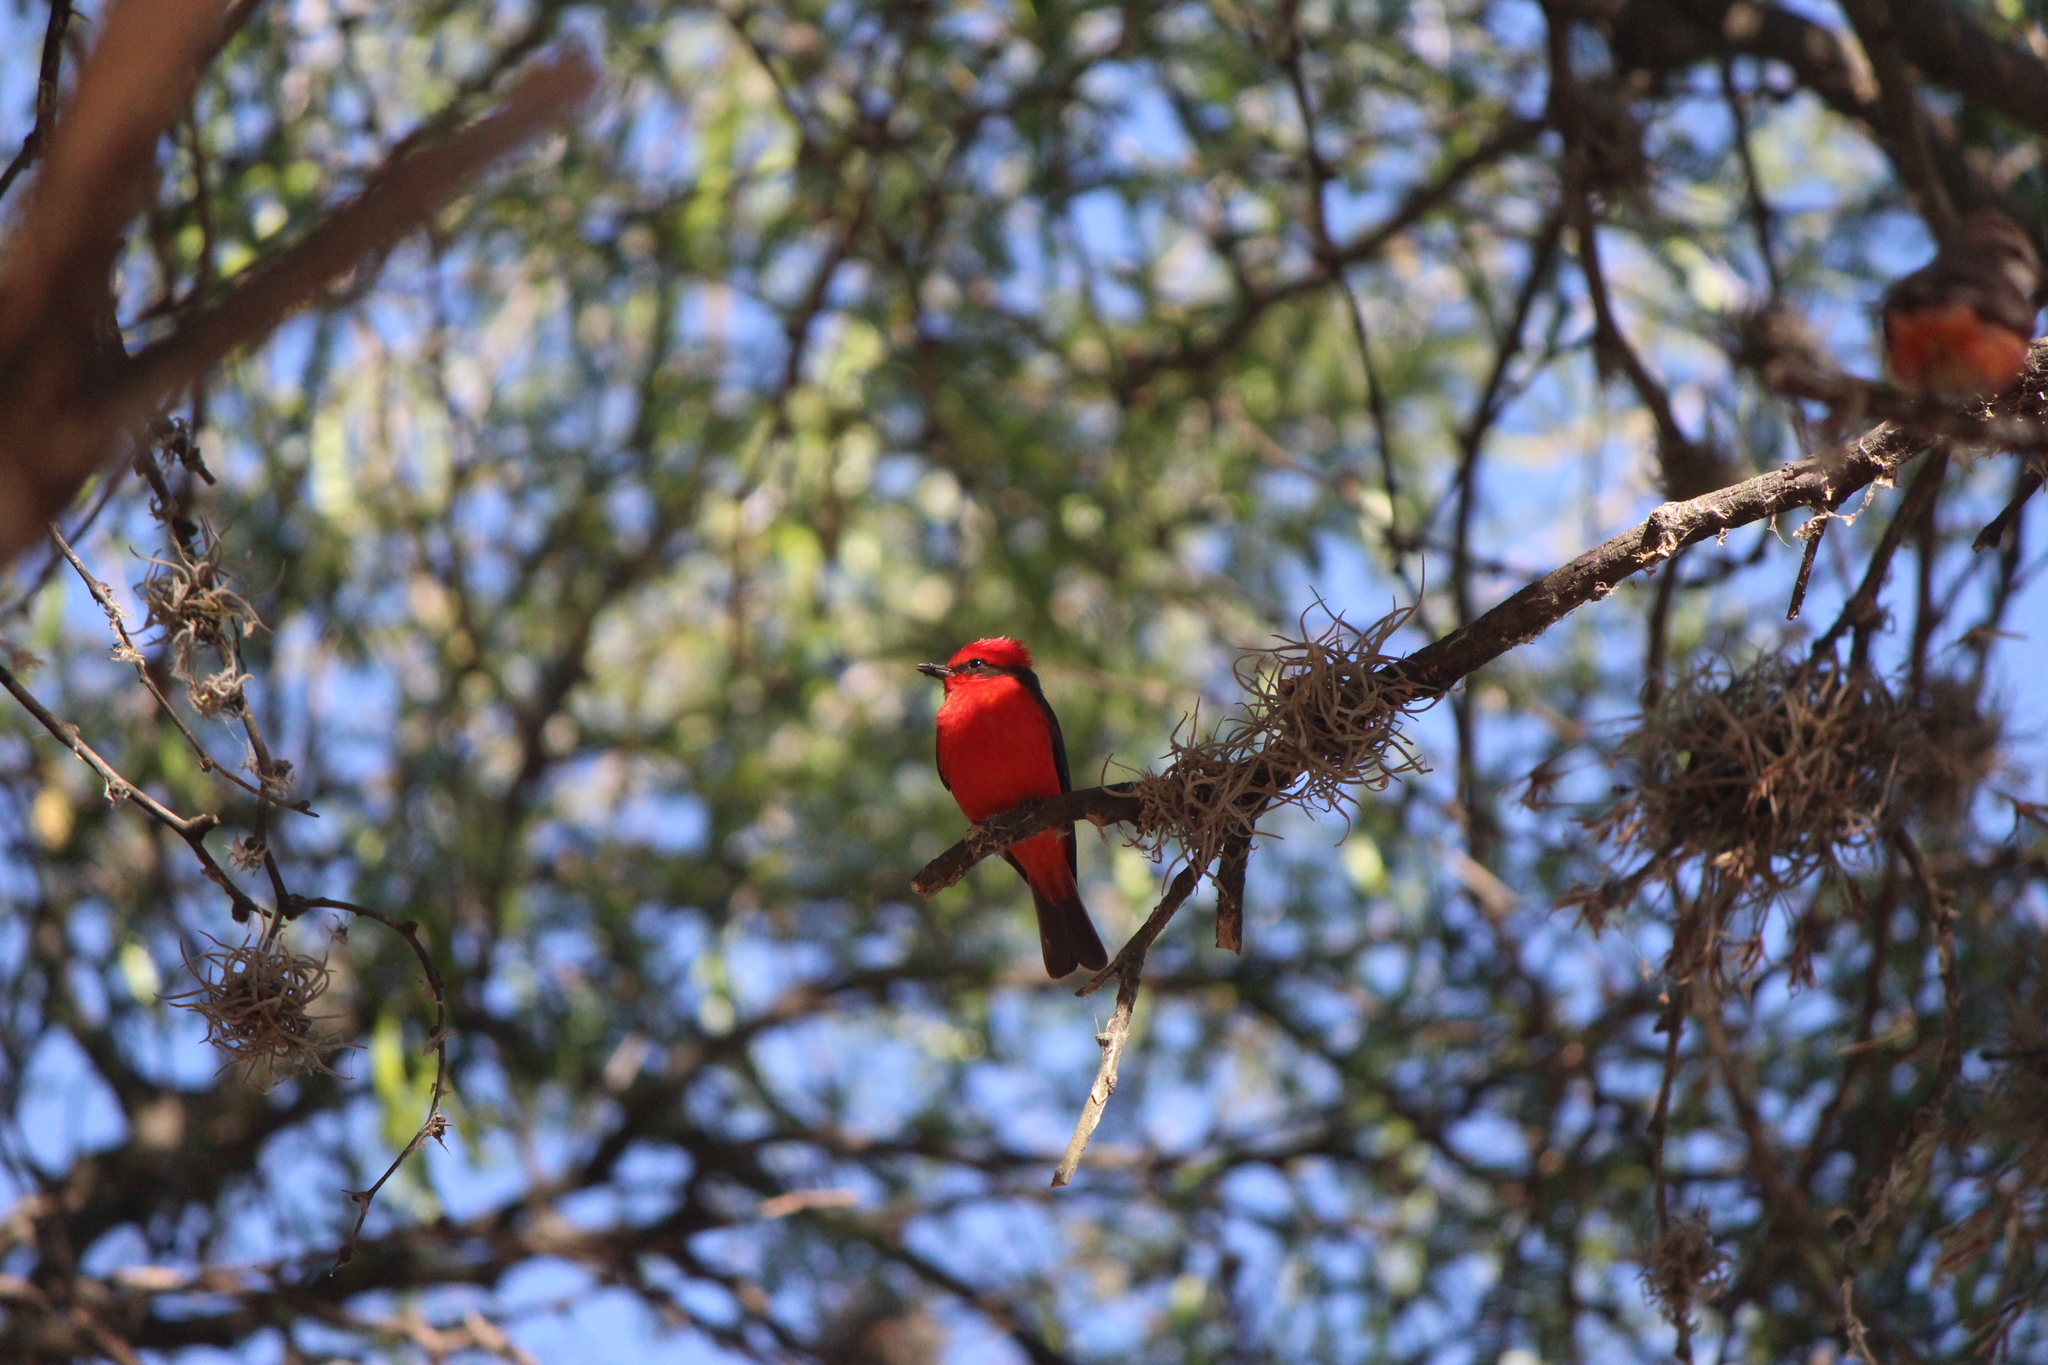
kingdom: Animalia
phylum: Chordata
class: Aves
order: Passeriformes
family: Tyrannidae
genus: Pyrocephalus
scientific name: Pyrocephalus rubinus
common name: Vermilion flycatcher
